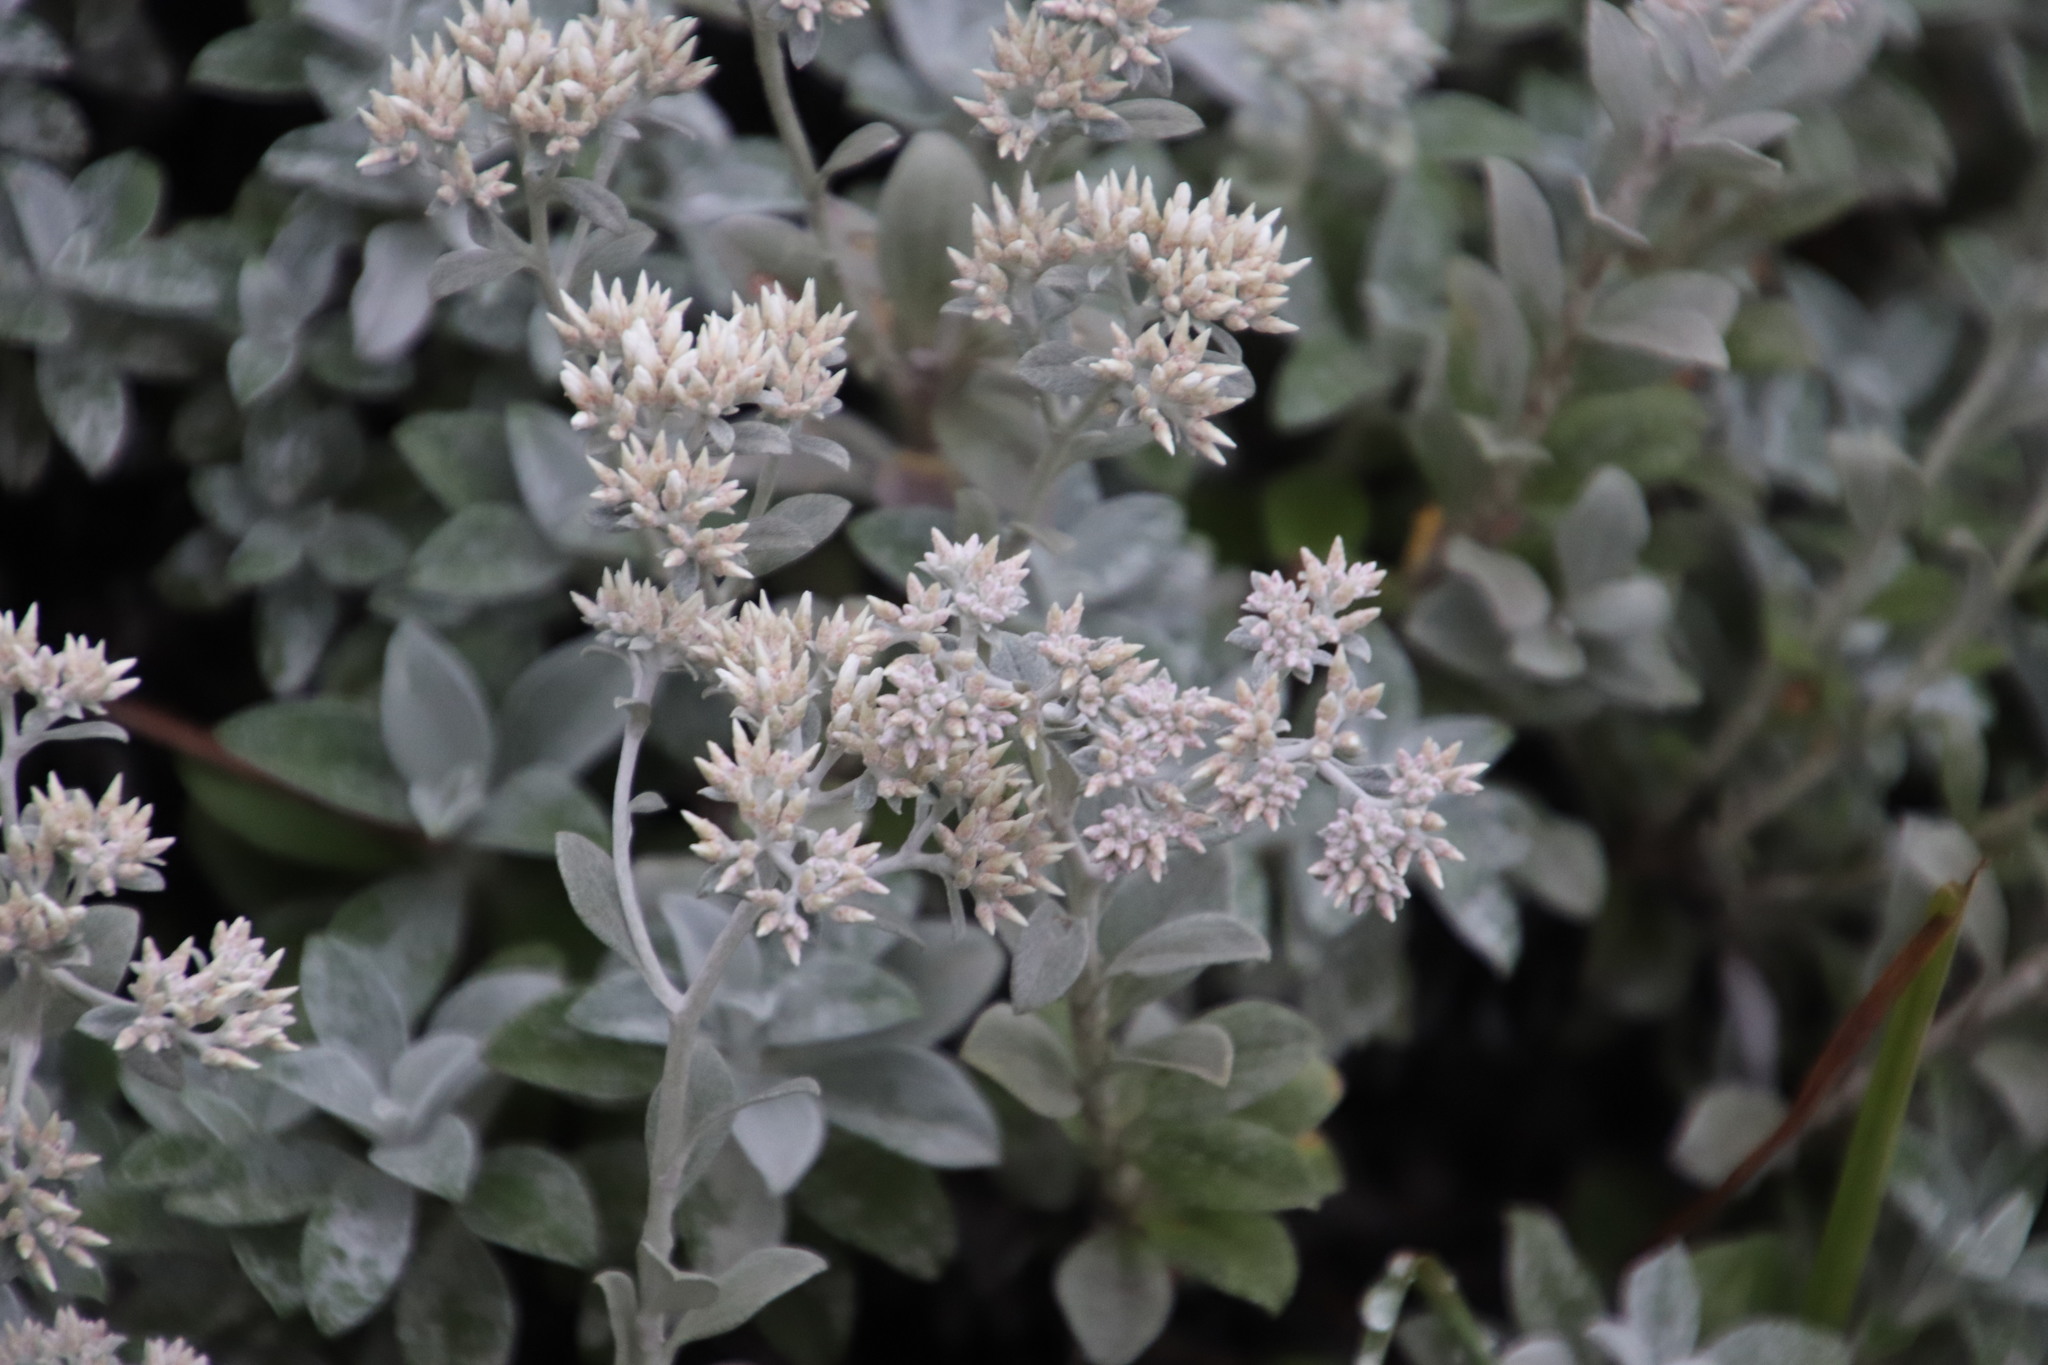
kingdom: Plantae
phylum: Tracheophyta
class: Magnoliopsida
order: Asterales
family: Asteraceae
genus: Helichrysum
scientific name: Helichrysum sutherlandii
